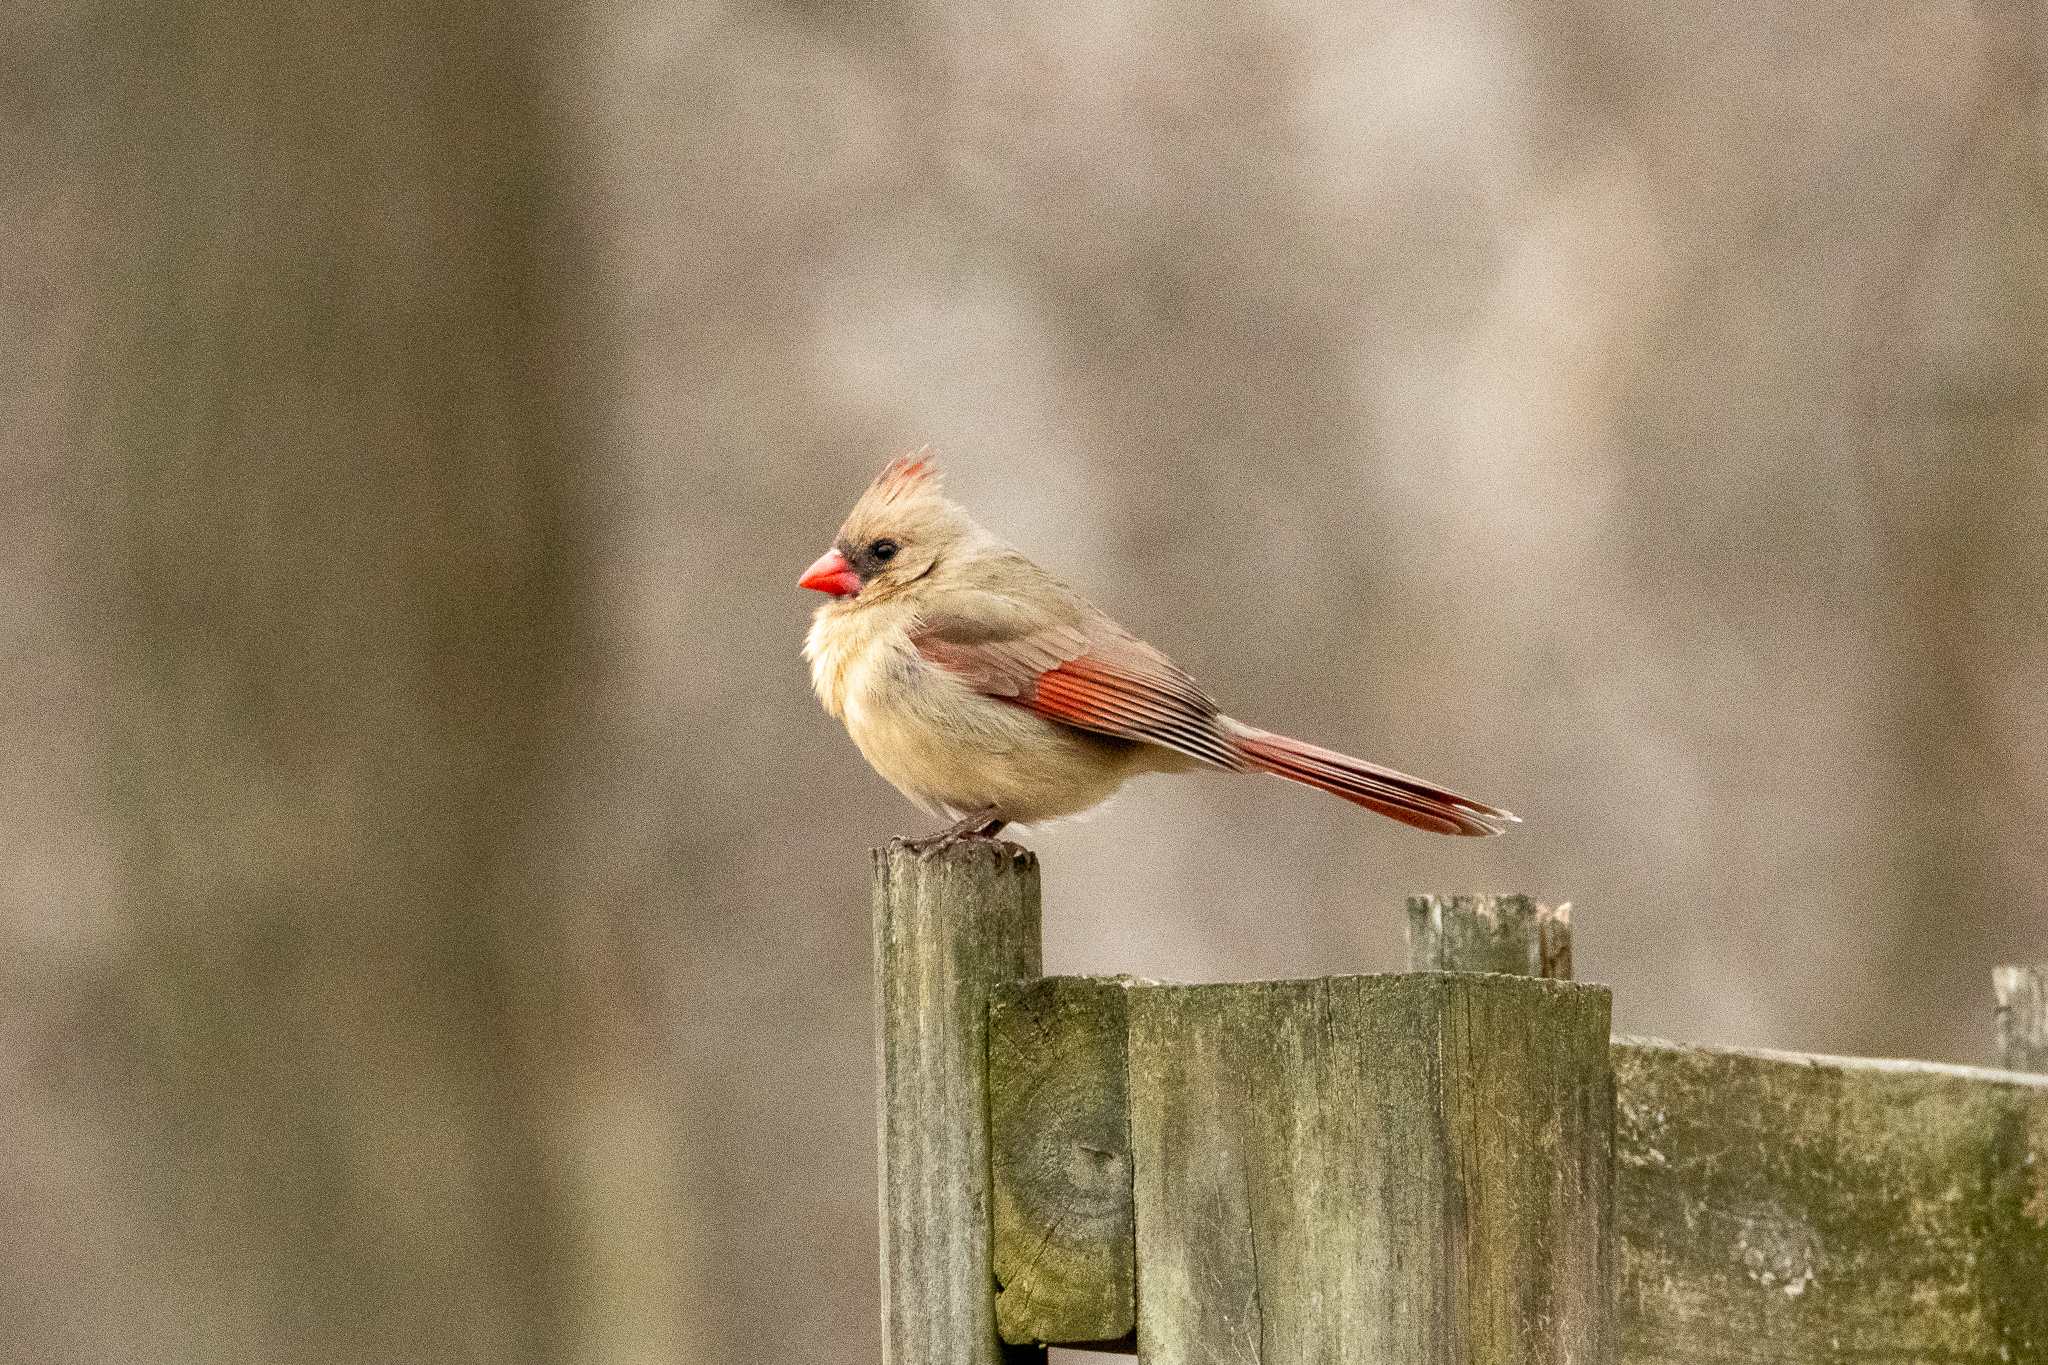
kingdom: Animalia
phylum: Chordata
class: Aves
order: Passeriformes
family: Cardinalidae
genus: Cardinalis
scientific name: Cardinalis cardinalis
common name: Northern cardinal
